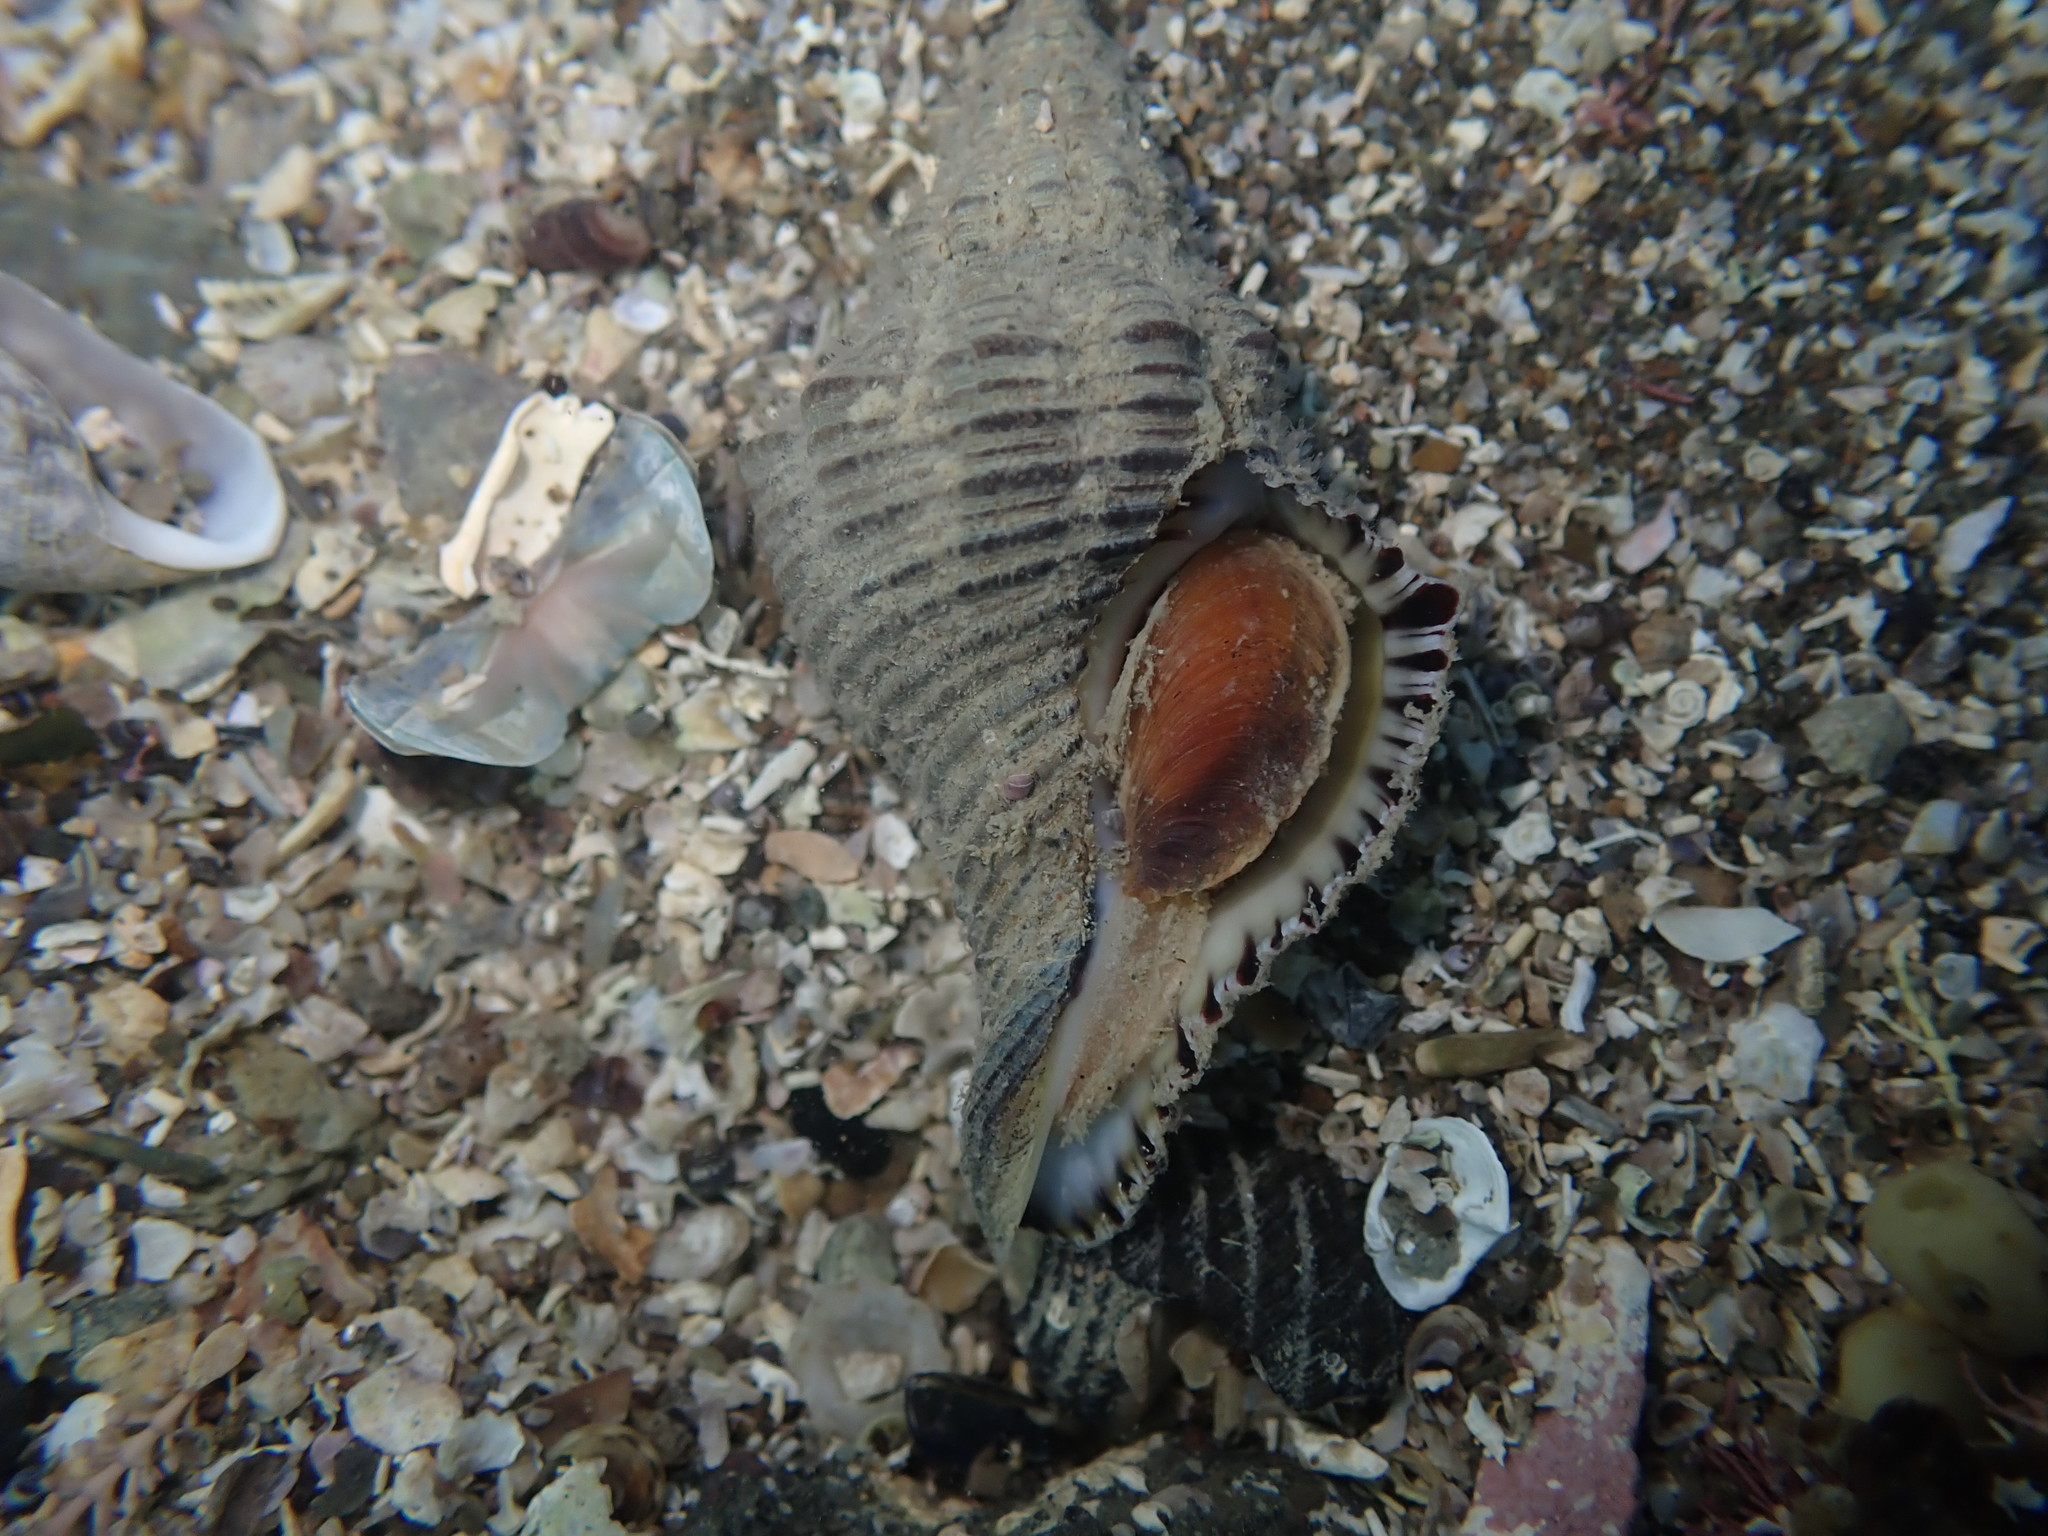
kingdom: Animalia
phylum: Mollusca
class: Gastropoda
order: Neogastropoda
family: Austrosiphonidae
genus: Penion
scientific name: Penion sulcatus
